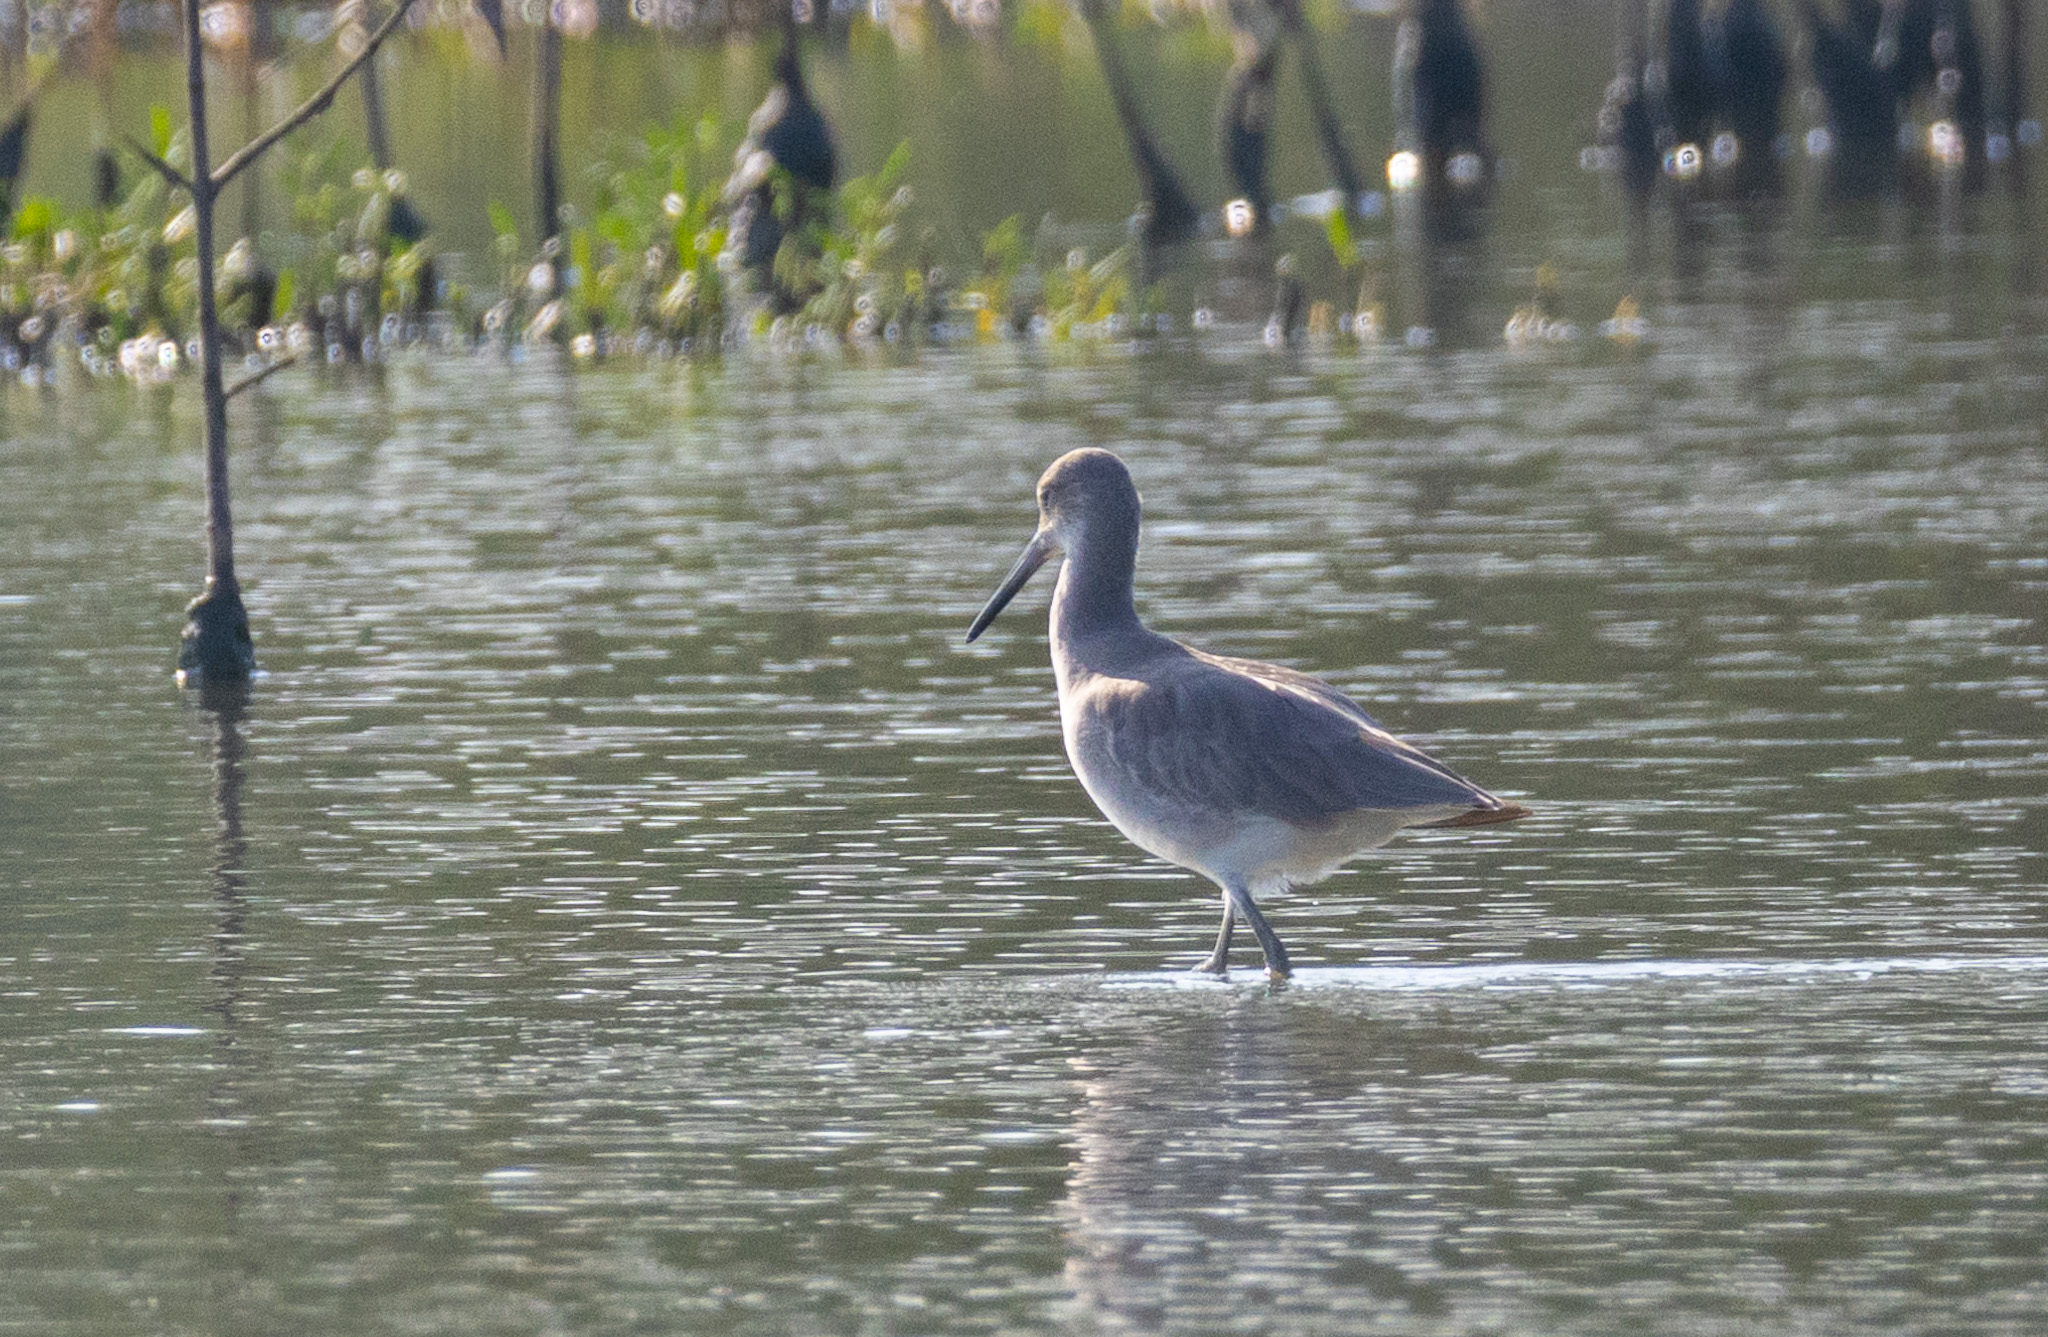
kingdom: Animalia
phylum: Chordata
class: Aves
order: Charadriiformes
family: Scolopacidae
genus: Tringa
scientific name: Tringa semipalmata
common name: Willet
